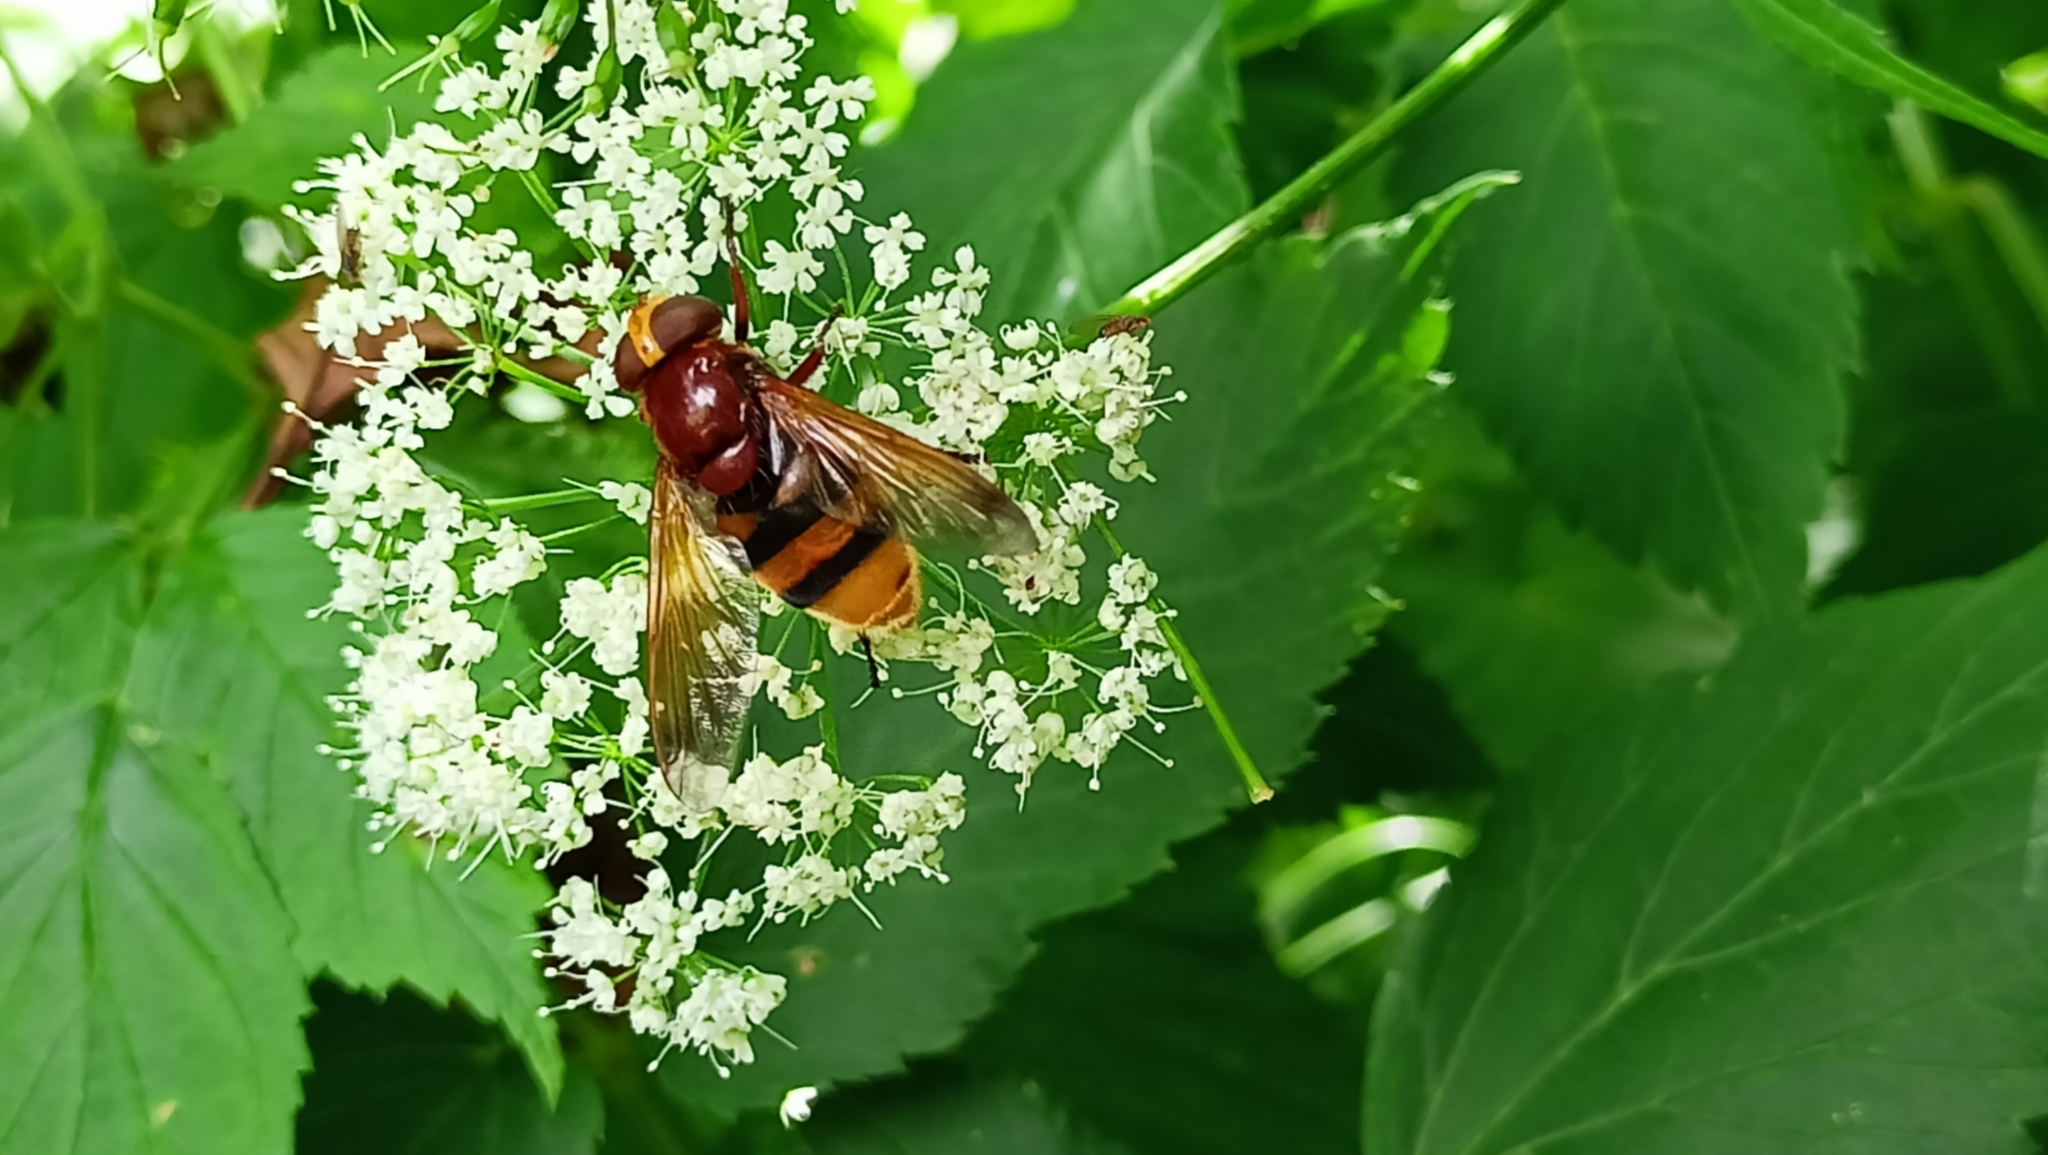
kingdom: Animalia
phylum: Arthropoda
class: Insecta
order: Diptera
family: Syrphidae
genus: Volucella
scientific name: Volucella zonaria
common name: Hornet hoverfly
